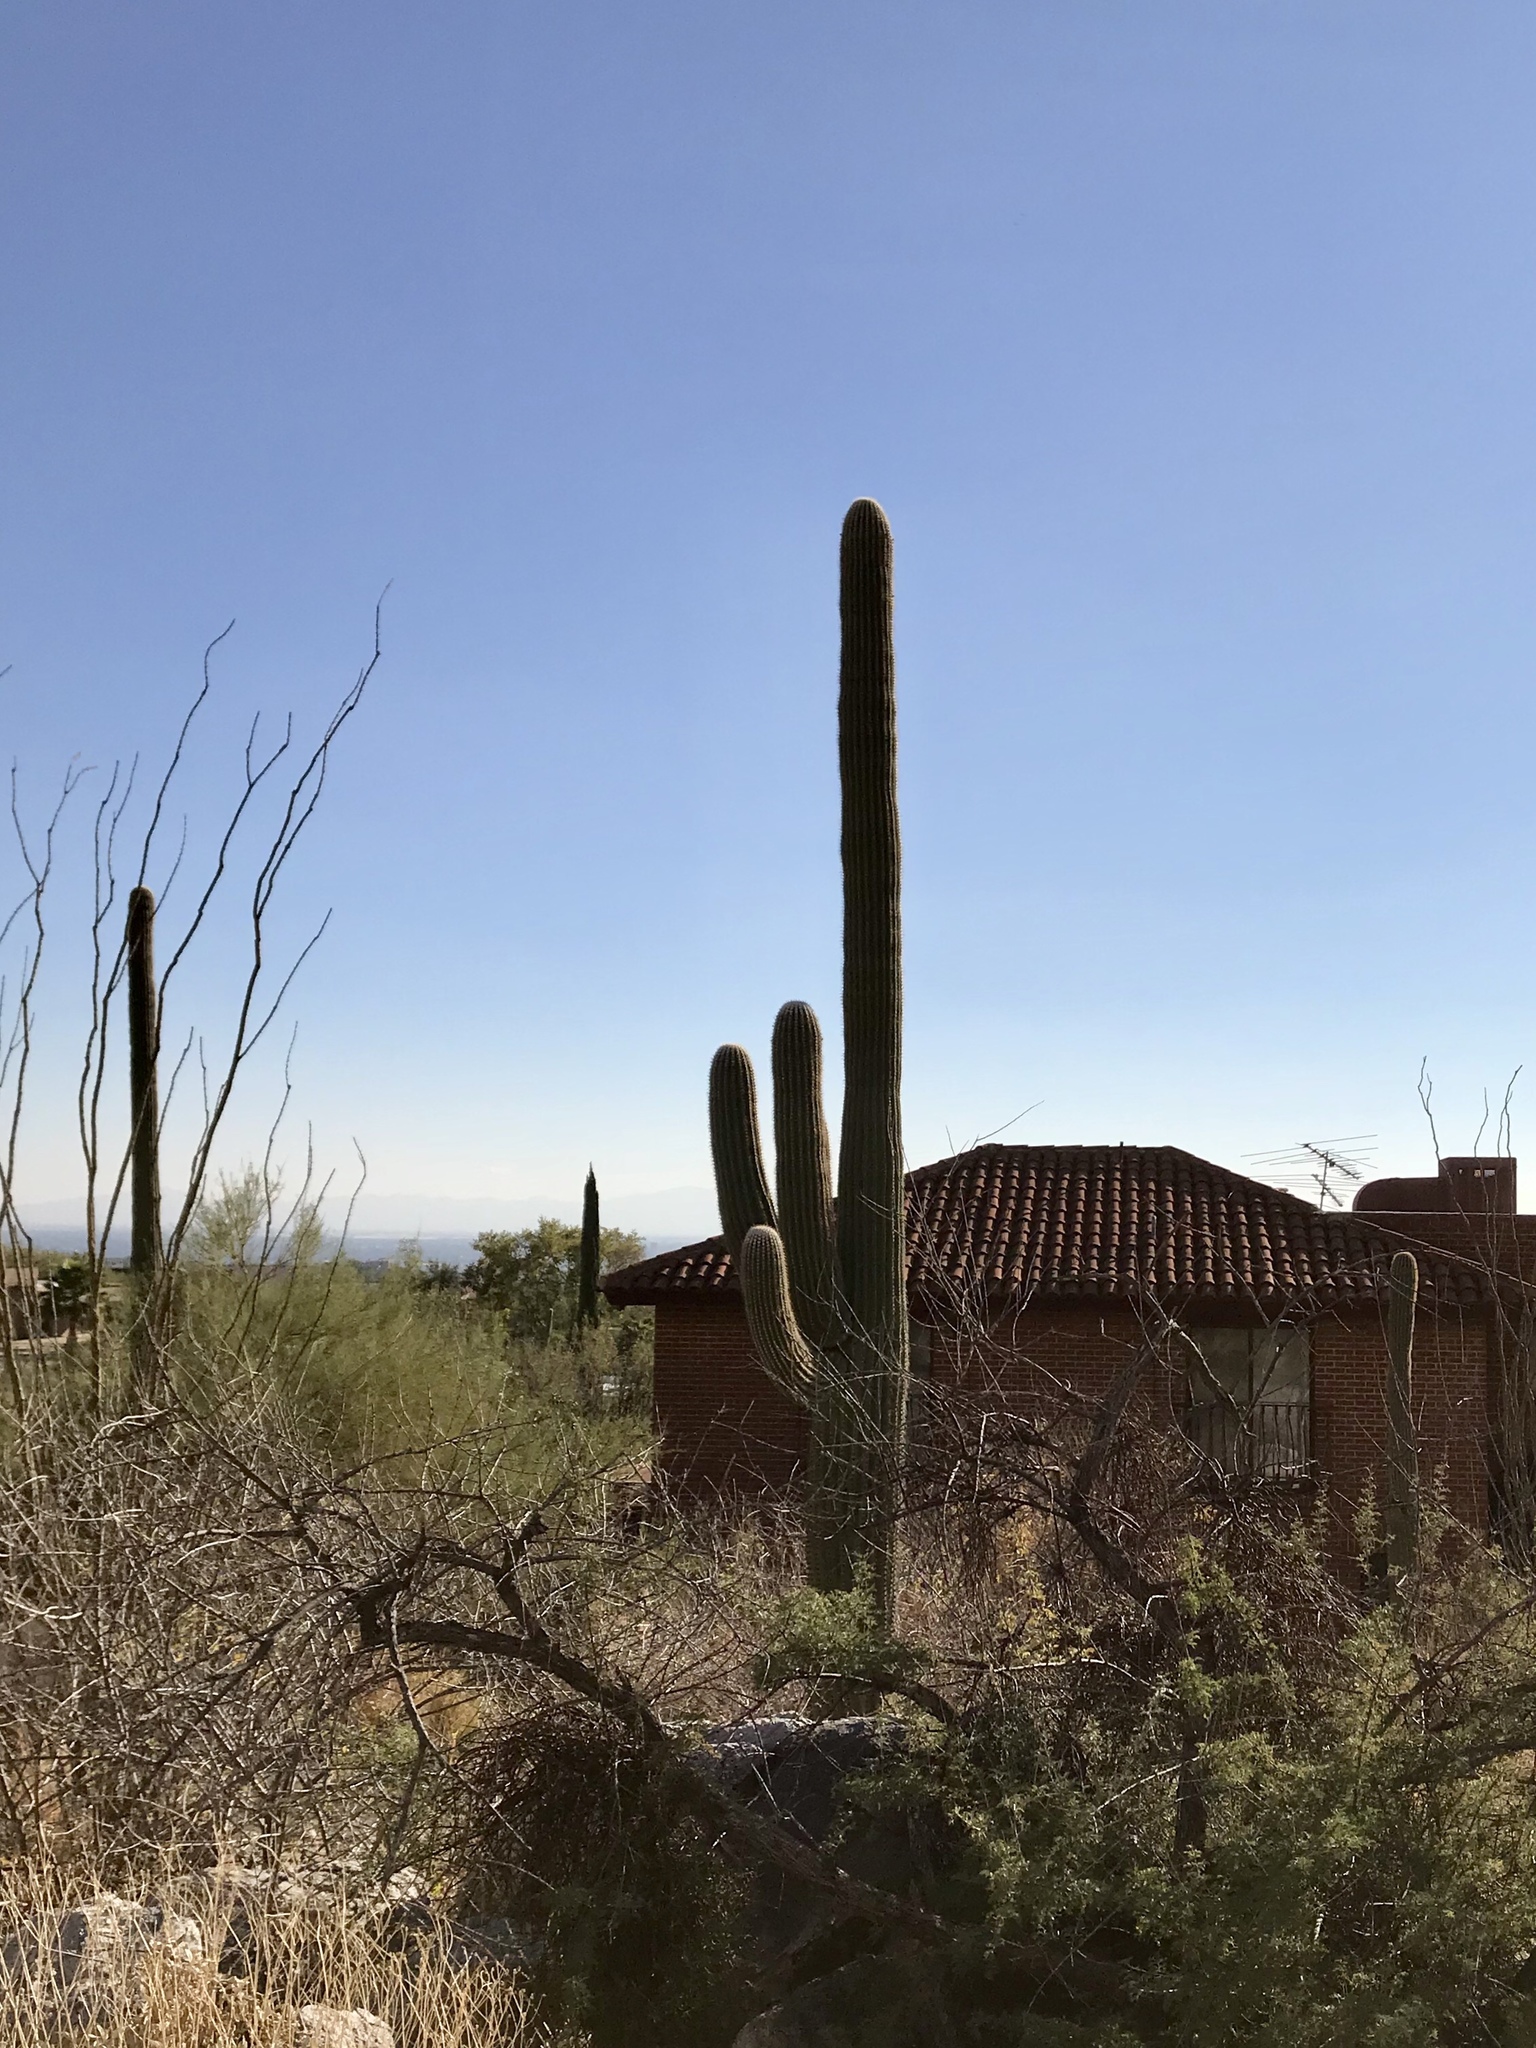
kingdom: Plantae
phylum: Tracheophyta
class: Magnoliopsida
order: Caryophyllales
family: Cactaceae
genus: Carnegiea
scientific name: Carnegiea gigantea
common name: Saguaro
